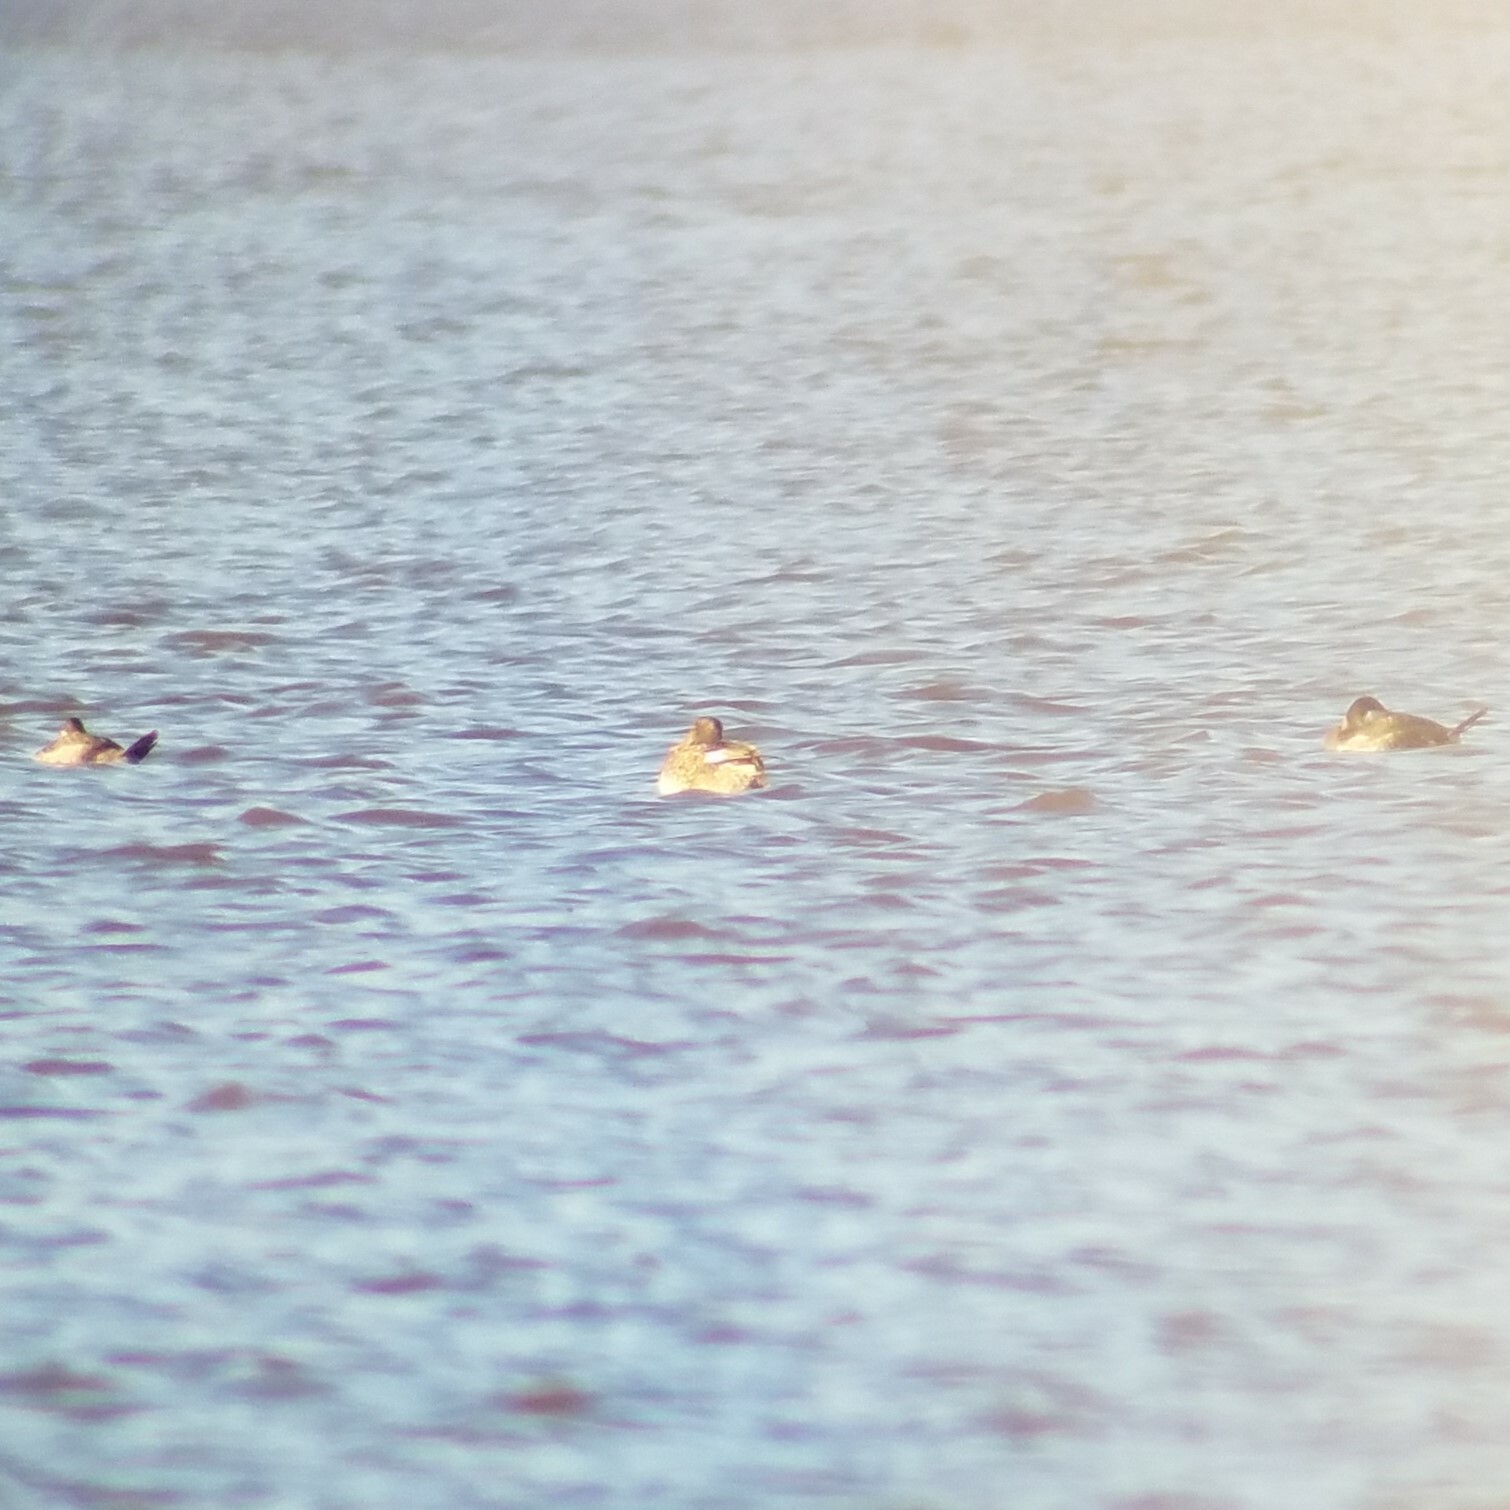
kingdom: Animalia
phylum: Chordata
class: Aves
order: Anseriformes
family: Anatidae
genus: Mareca
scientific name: Mareca strepera
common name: Gadwall
